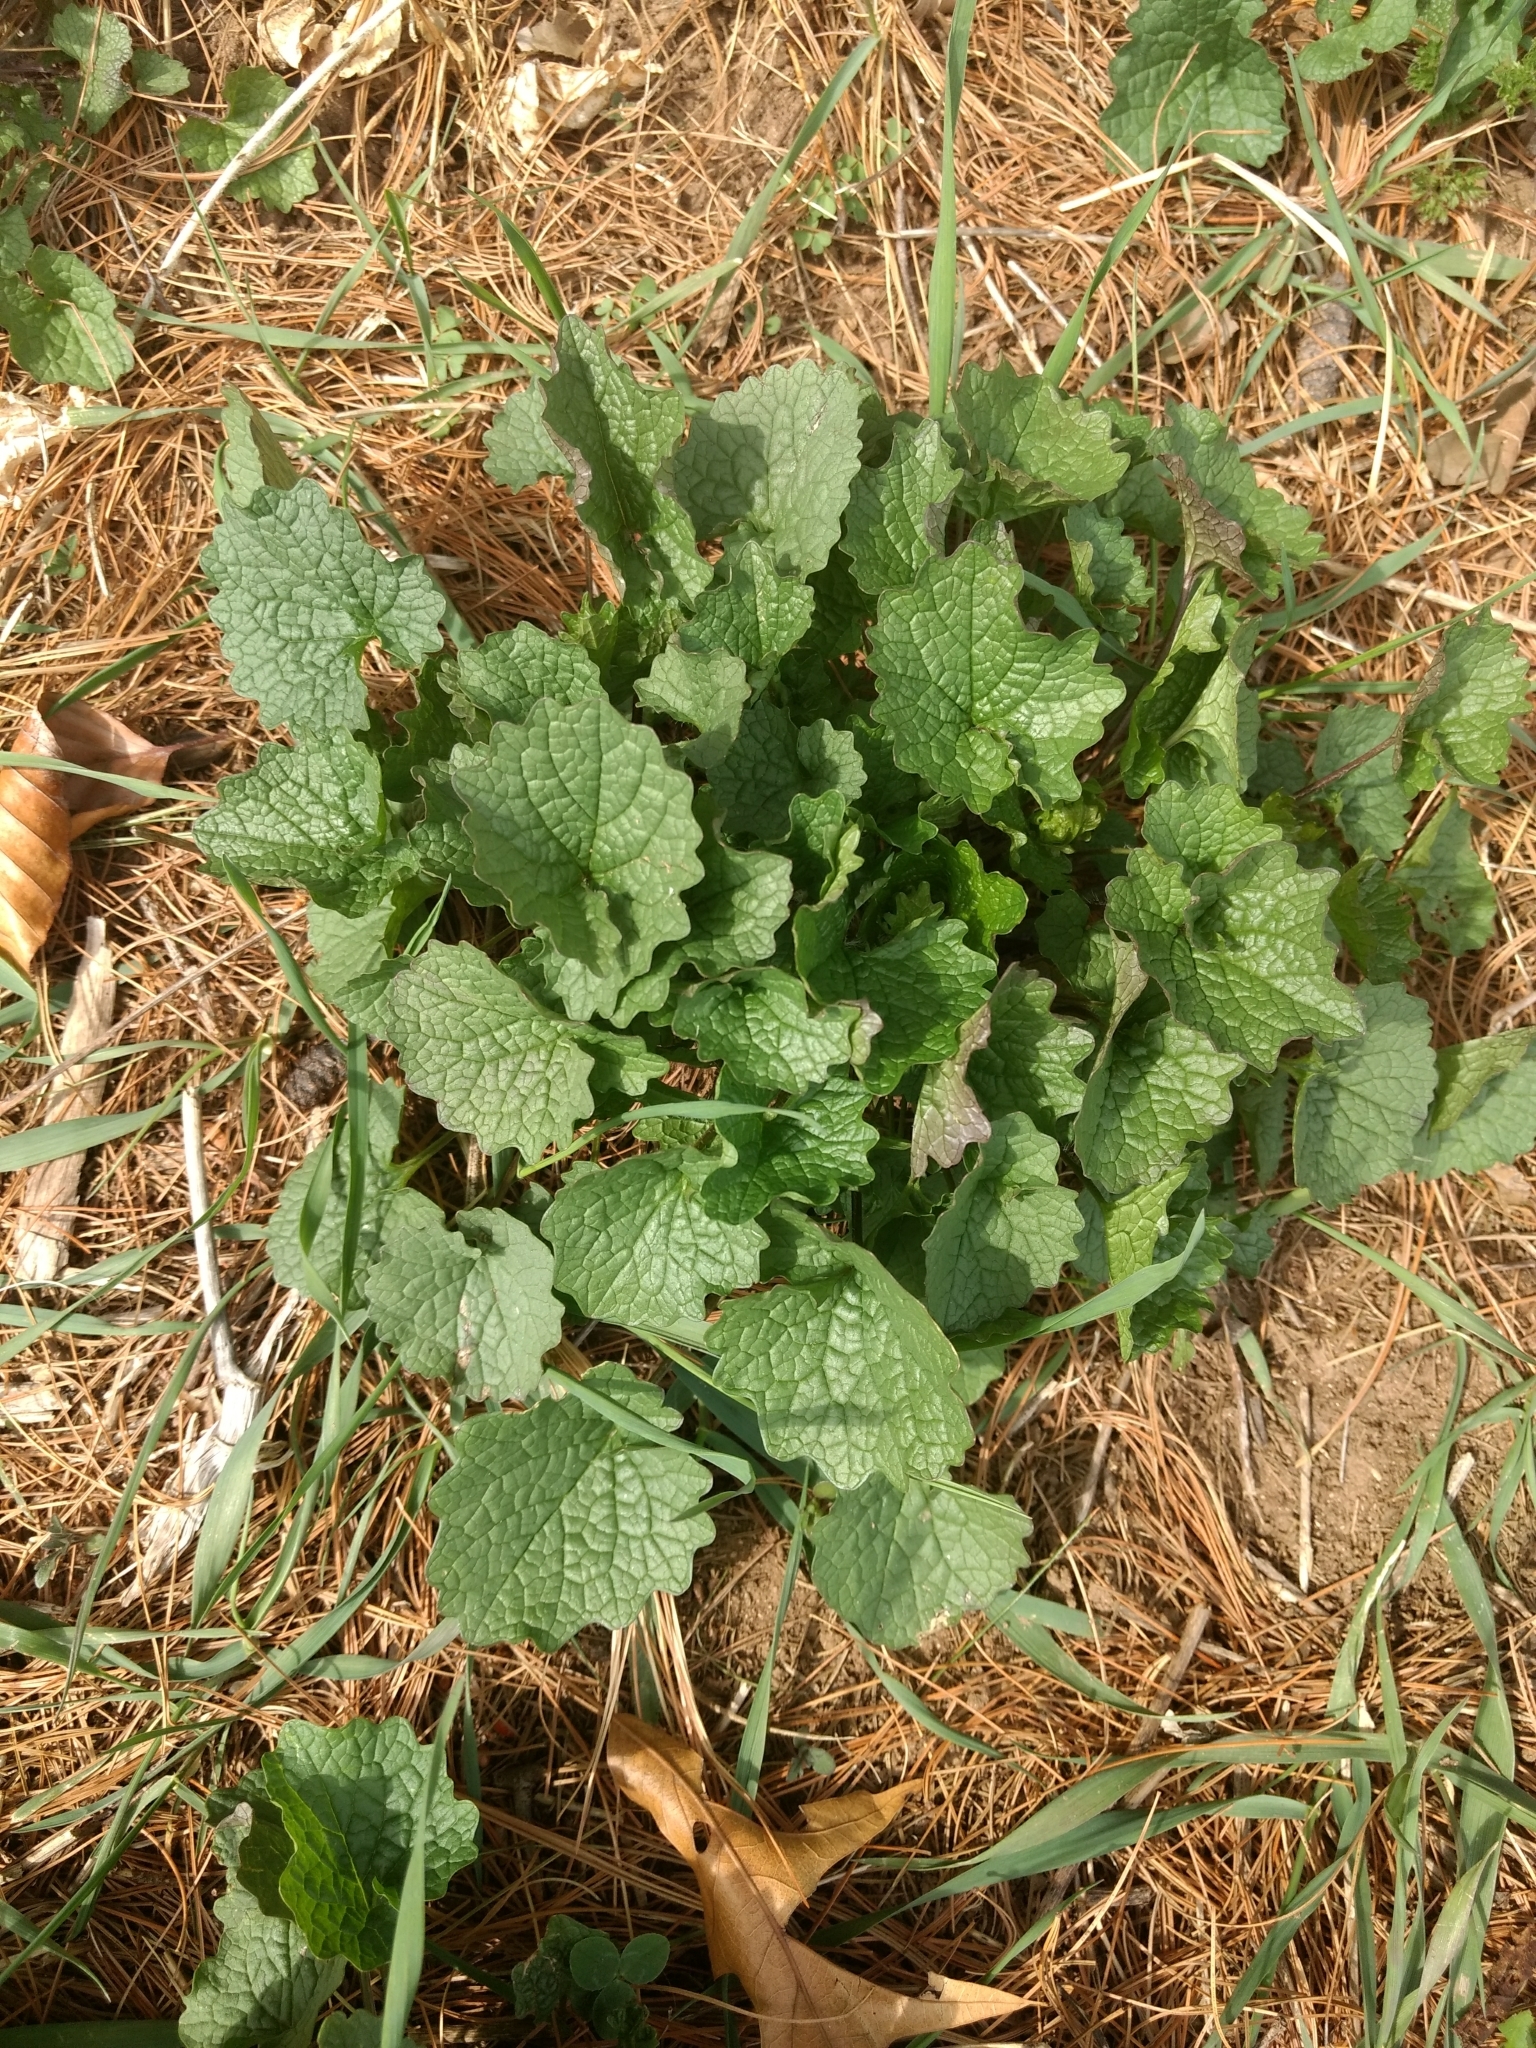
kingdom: Plantae
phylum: Tracheophyta
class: Magnoliopsida
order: Brassicales
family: Brassicaceae
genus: Alliaria
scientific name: Alliaria petiolata
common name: Garlic mustard
